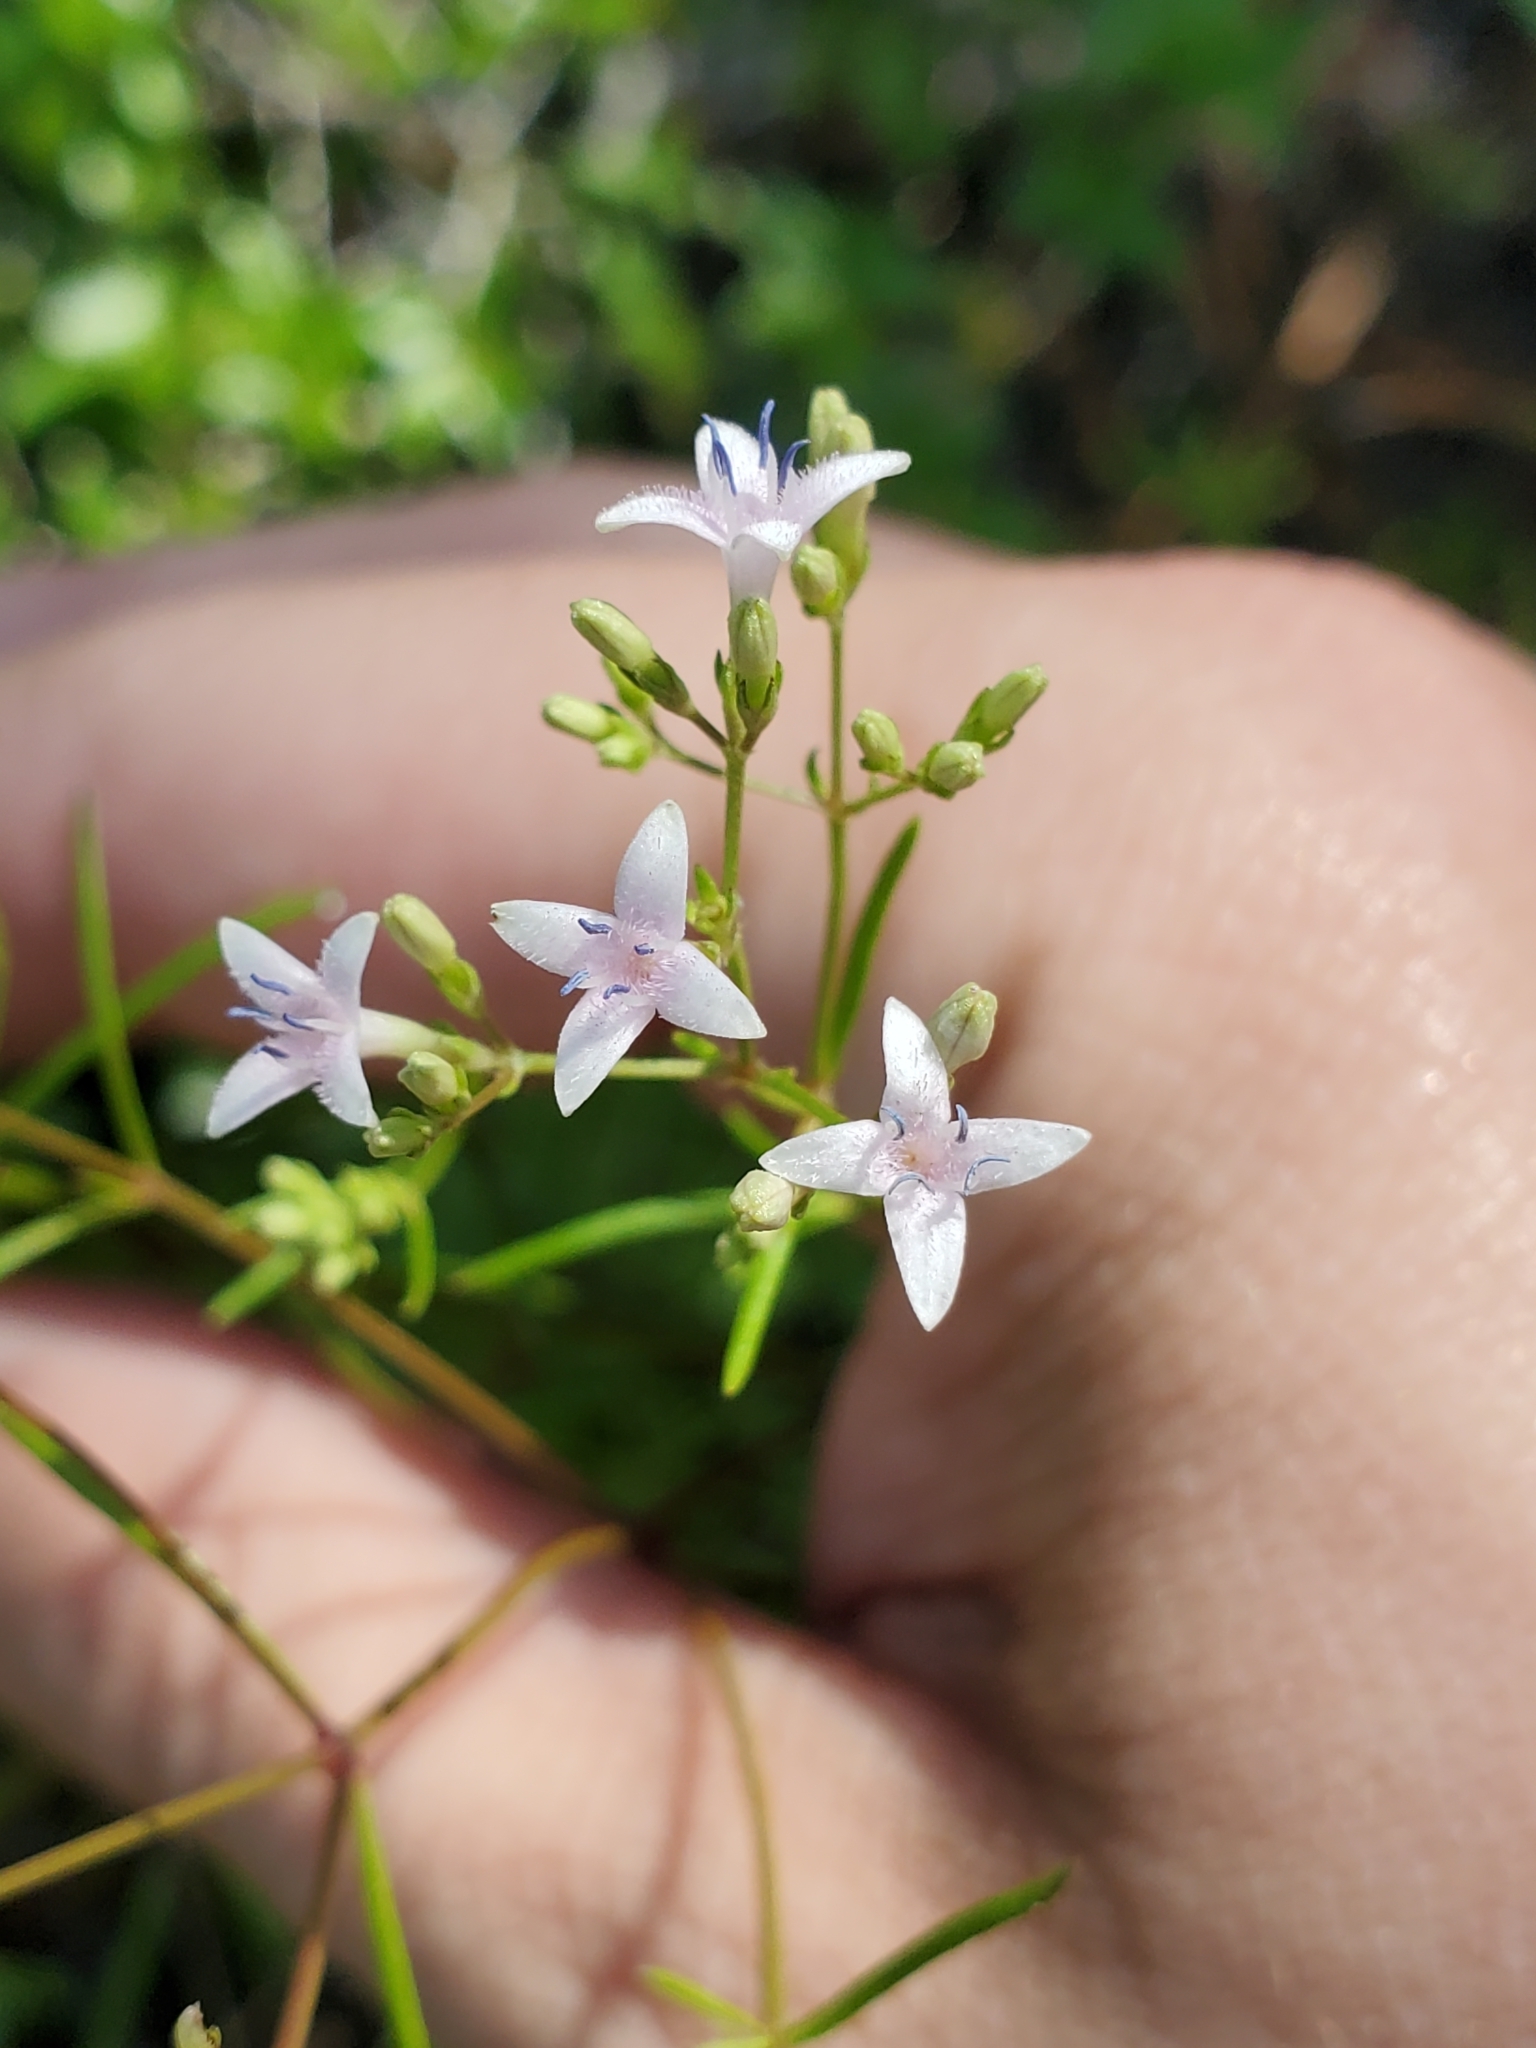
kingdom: Plantae
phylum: Tracheophyta
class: Magnoliopsida
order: Gentianales
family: Rubiaceae
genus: Stenaria
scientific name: Stenaria nigricans
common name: Diamondflowers
